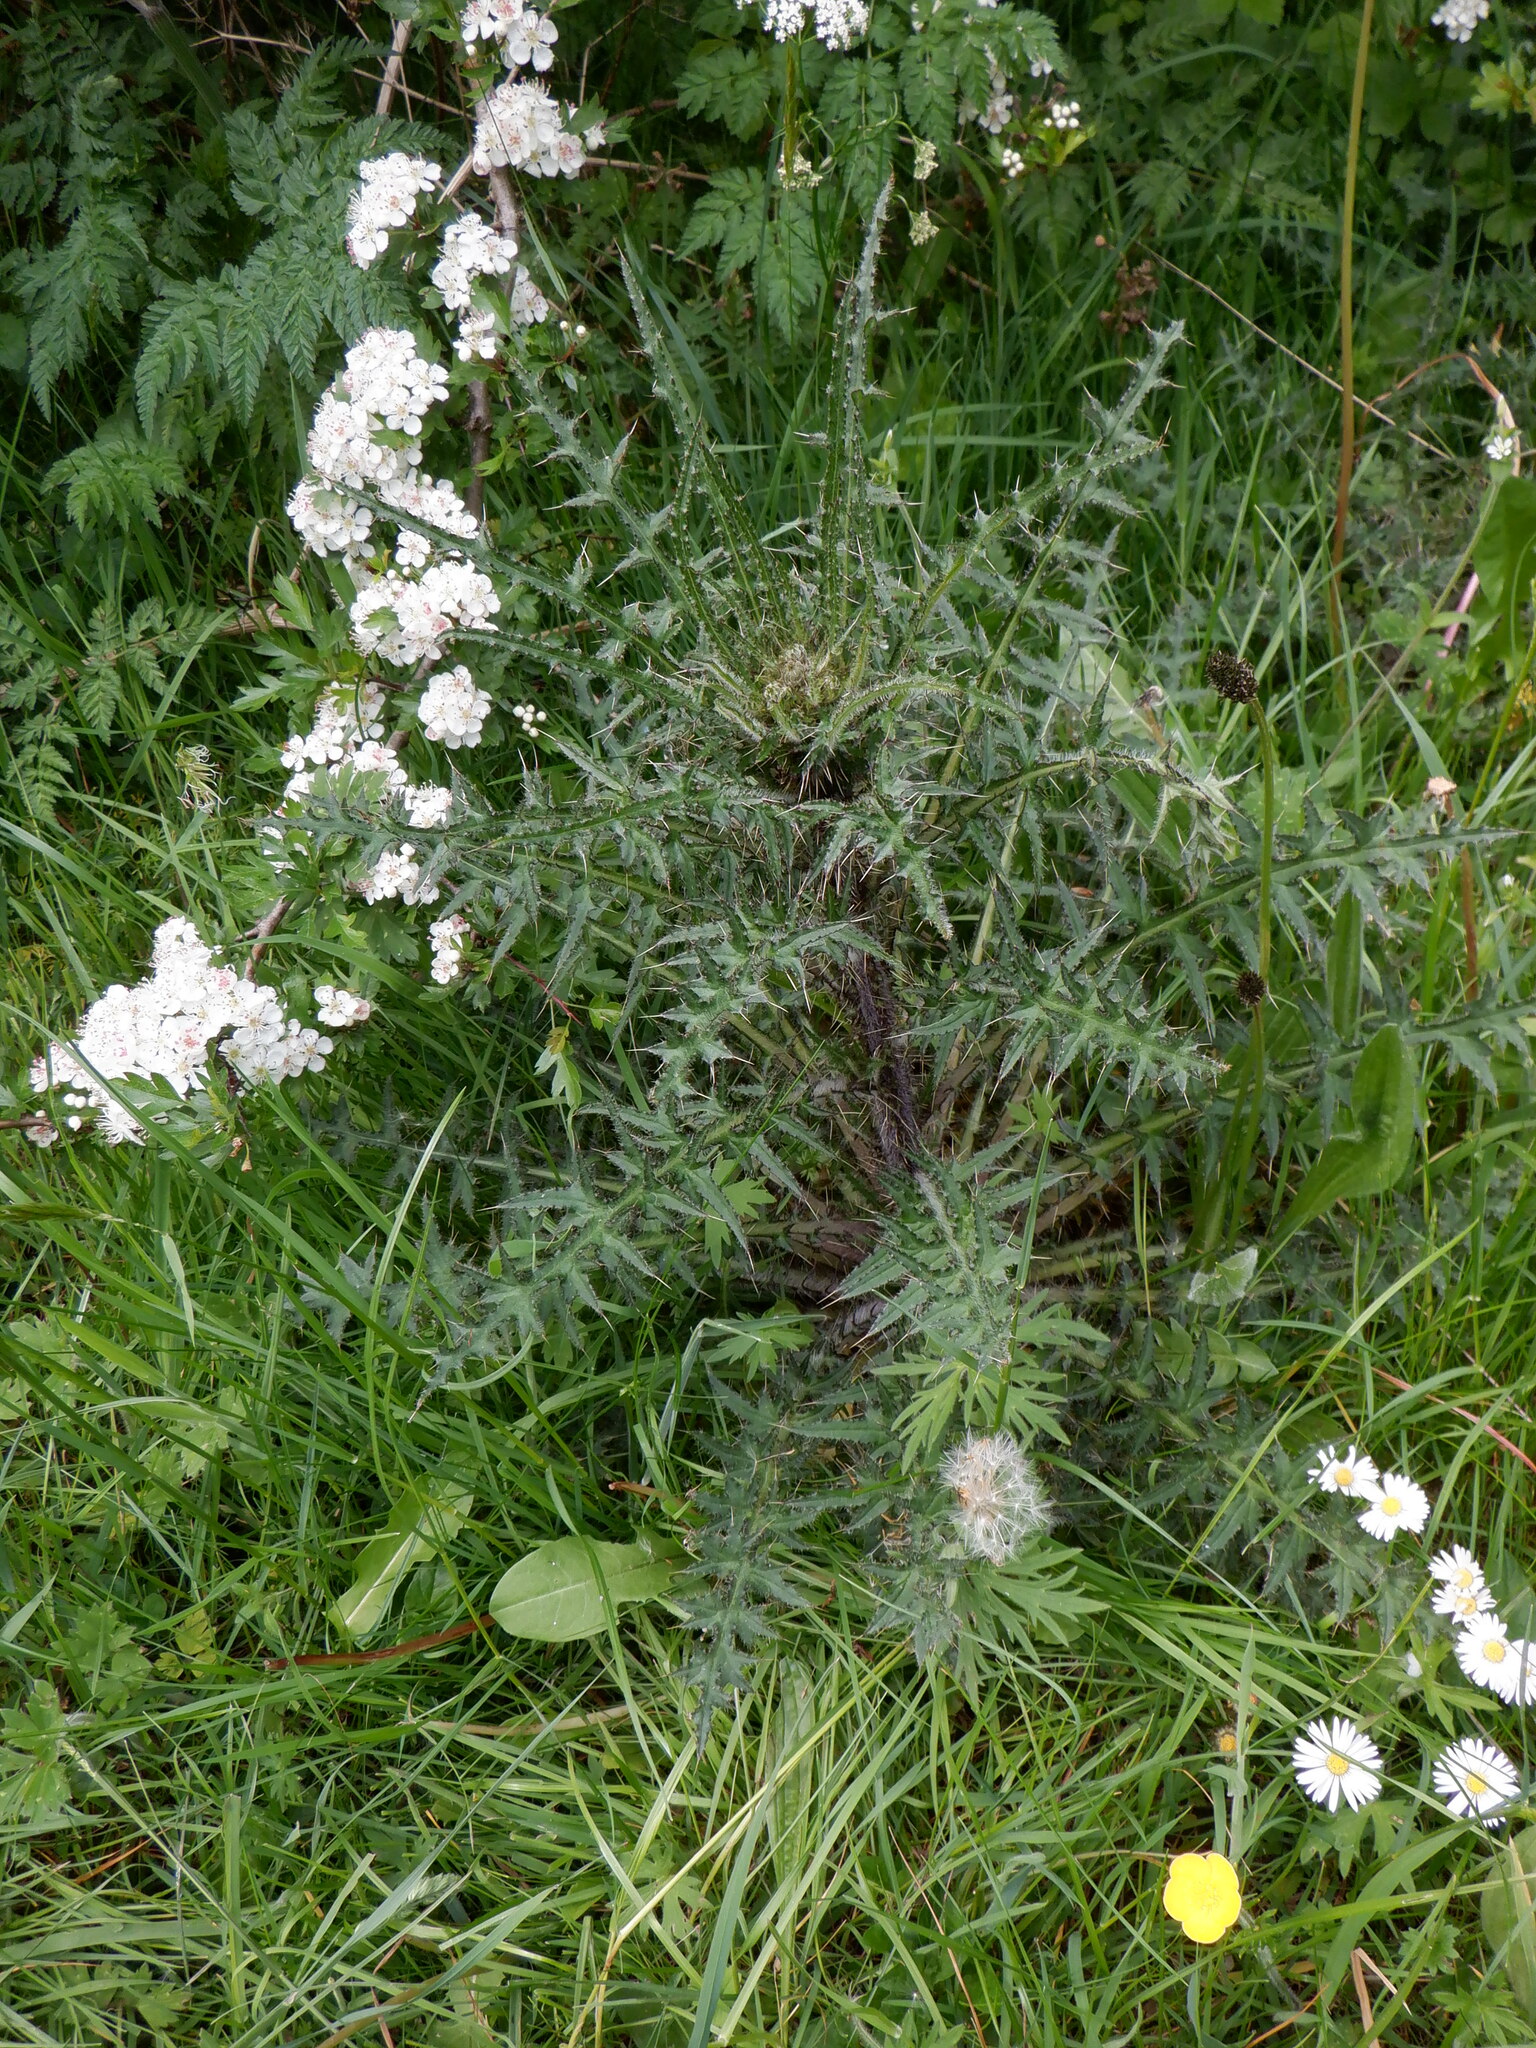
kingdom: Plantae
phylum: Tracheophyta
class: Magnoliopsida
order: Asterales
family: Asteraceae
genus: Cirsium
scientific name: Cirsium palustre
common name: Marsh thistle
